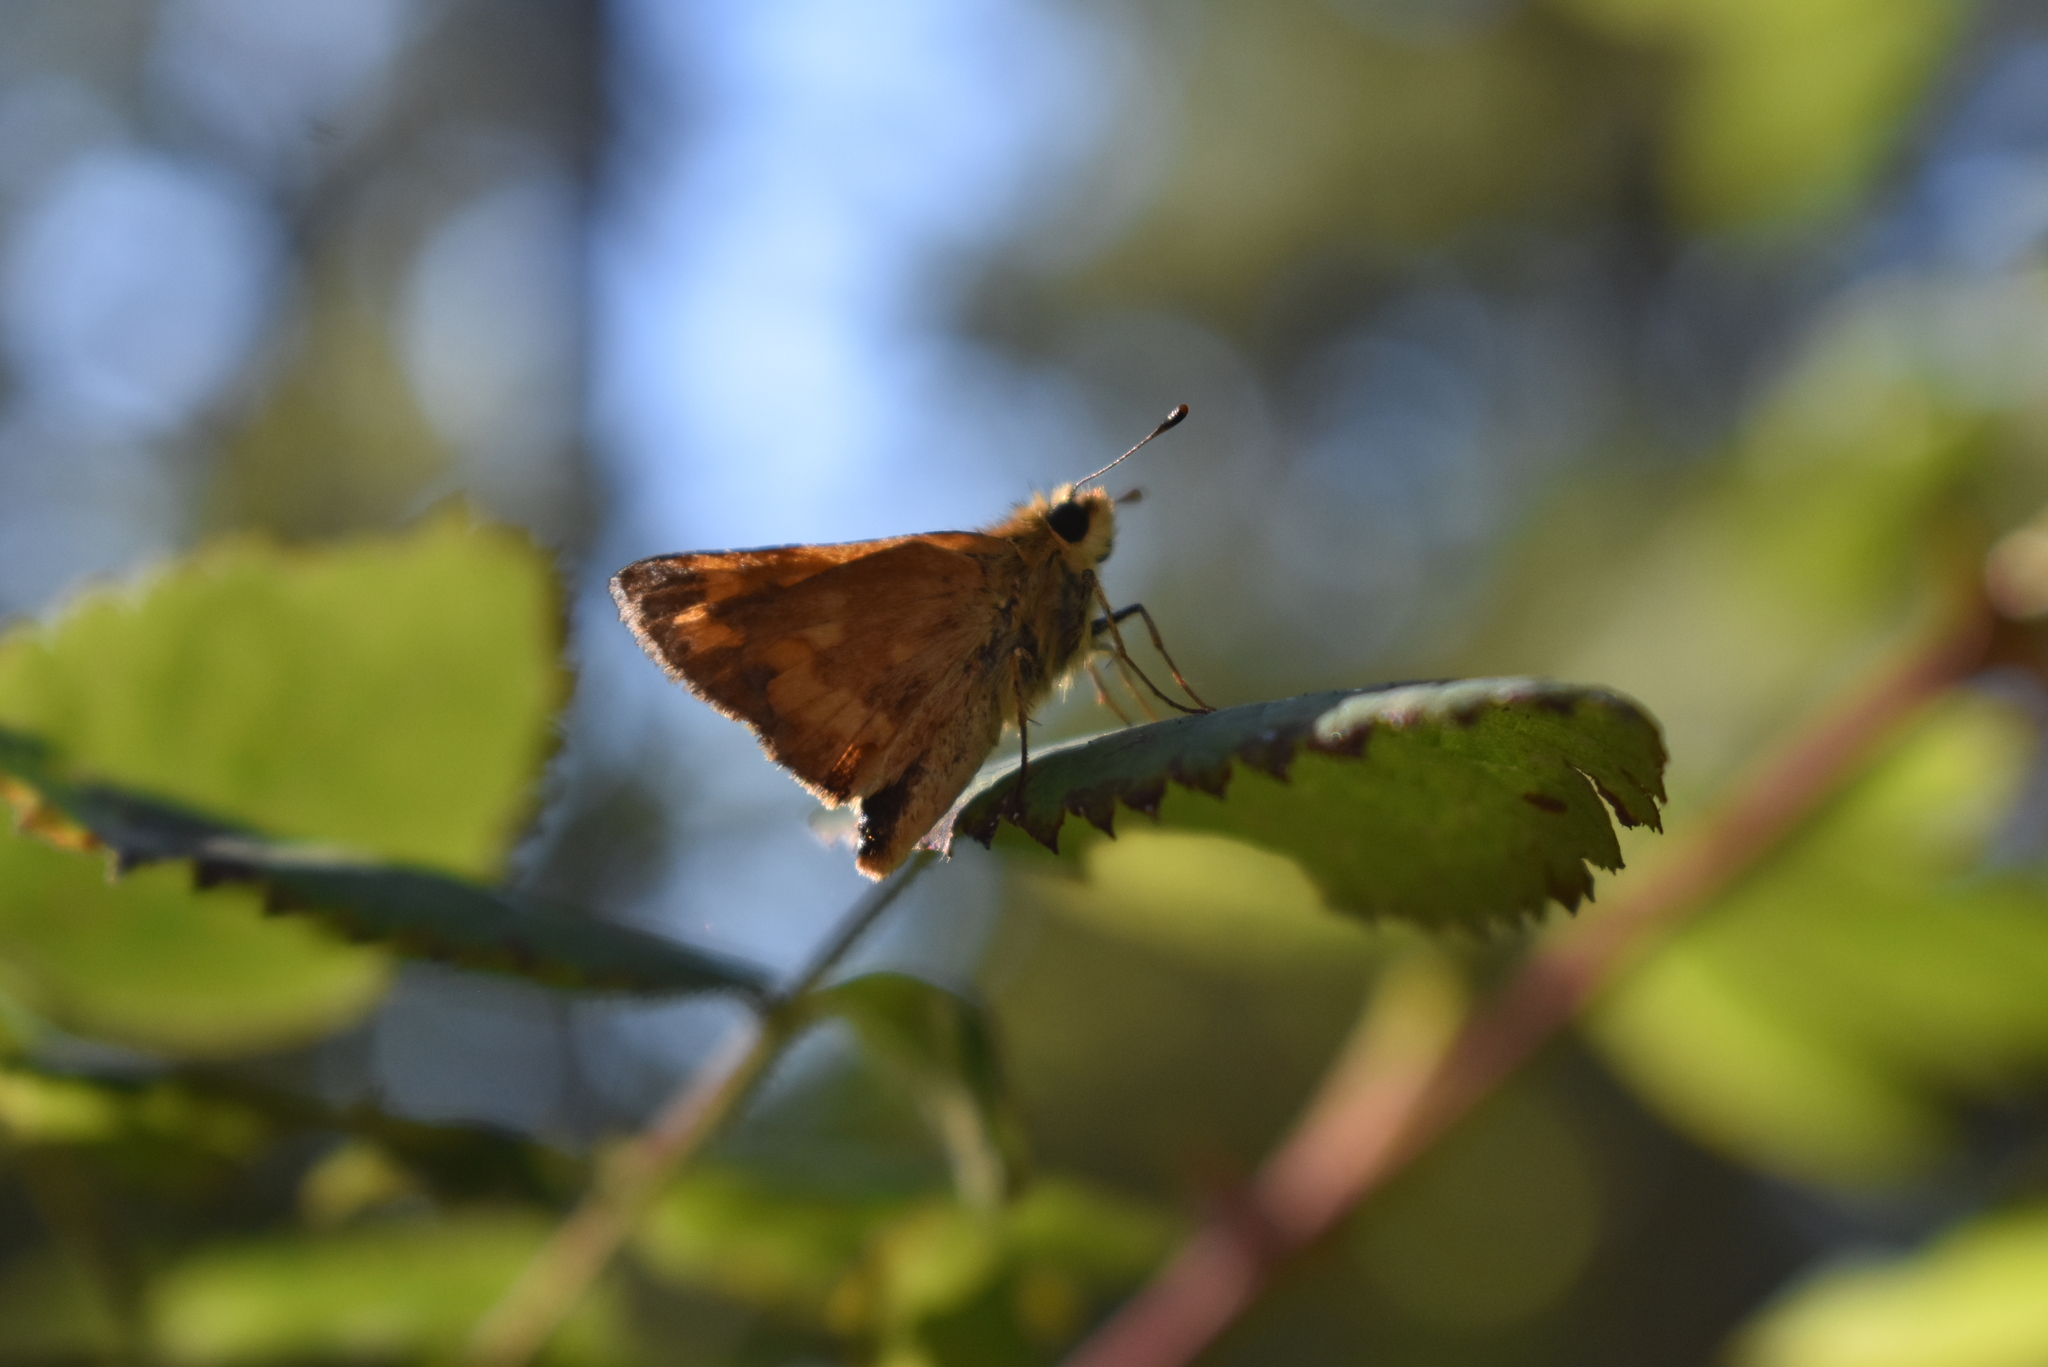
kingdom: Animalia
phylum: Arthropoda
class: Insecta
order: Lepidoptera
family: Hesperiidae
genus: Ochlodes
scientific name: Ochlodes sylvanoides
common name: Woodland skipper
